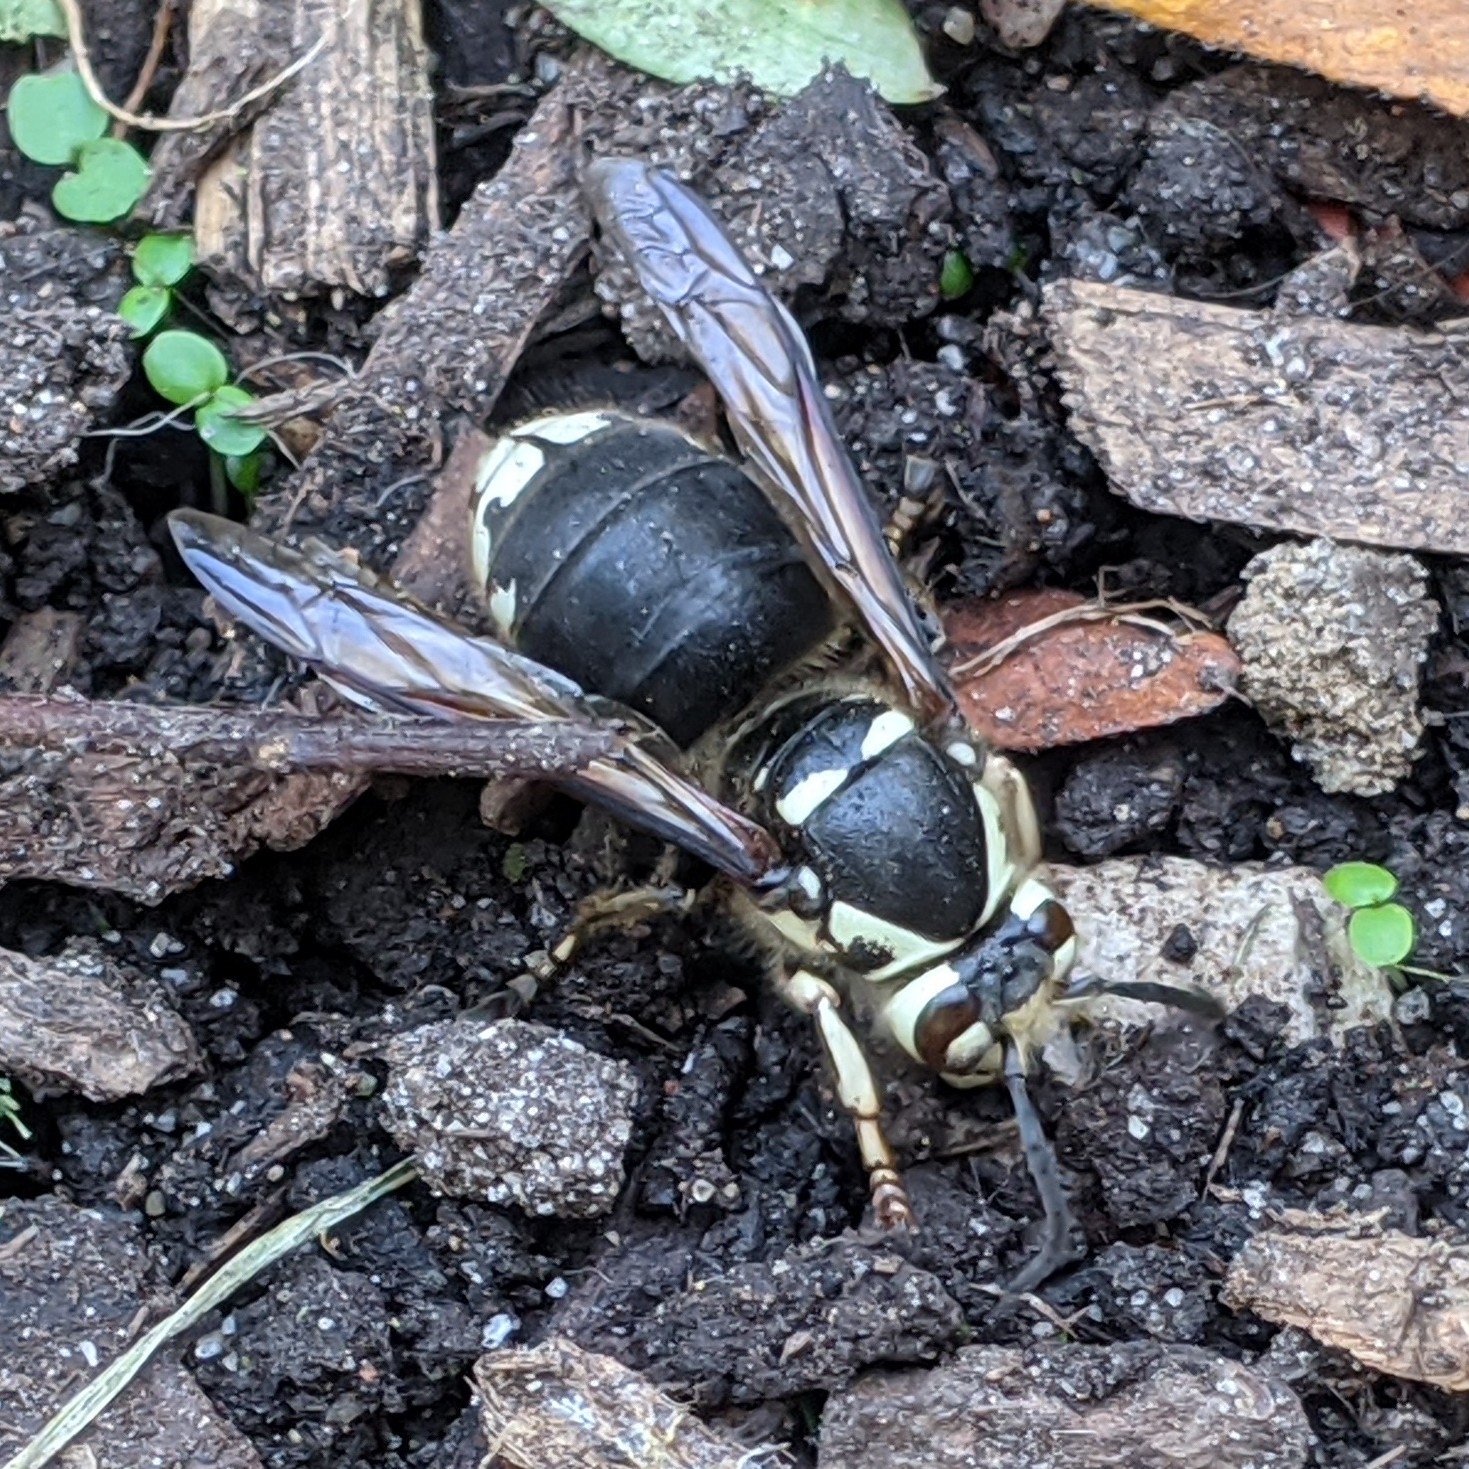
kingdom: Animalia
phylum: Arthropoda
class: Insecta
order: Hymenoptera
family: Vespidae
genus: Dolichovespula
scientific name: Dolichovespula maculata
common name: Bald-faced hornet
